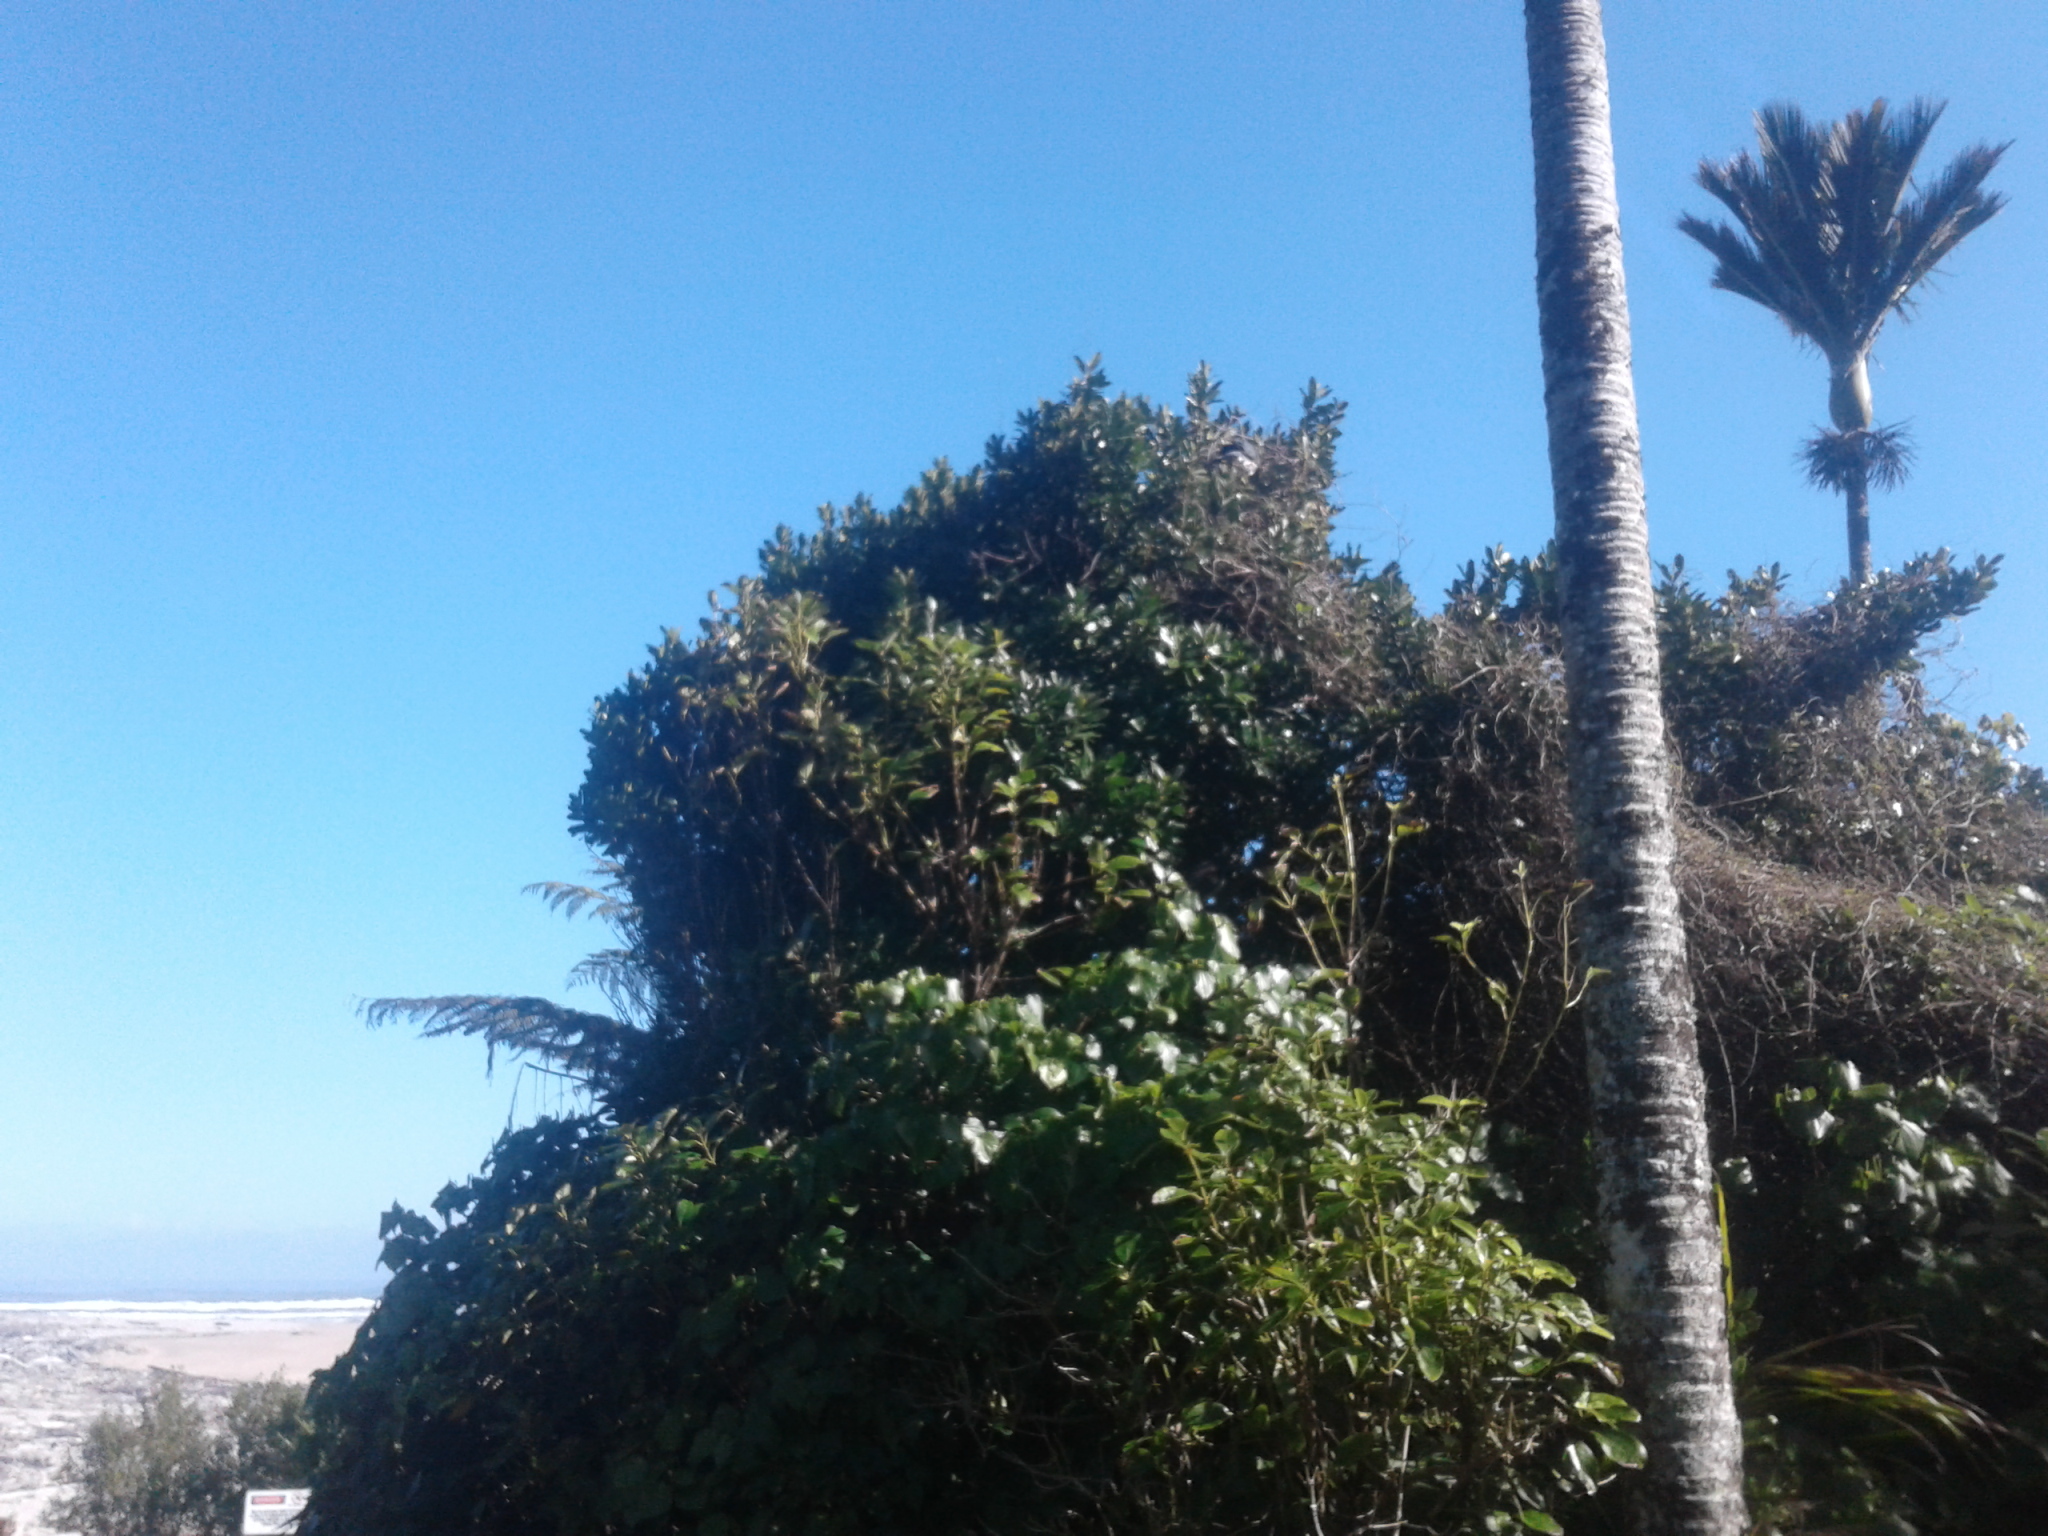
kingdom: Animalia
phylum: Chordata
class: Aves
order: Columbiformes
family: Columbidae
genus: Hemiphaga
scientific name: Hemiphaga novaeseelandiae
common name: New zealand pigeon
